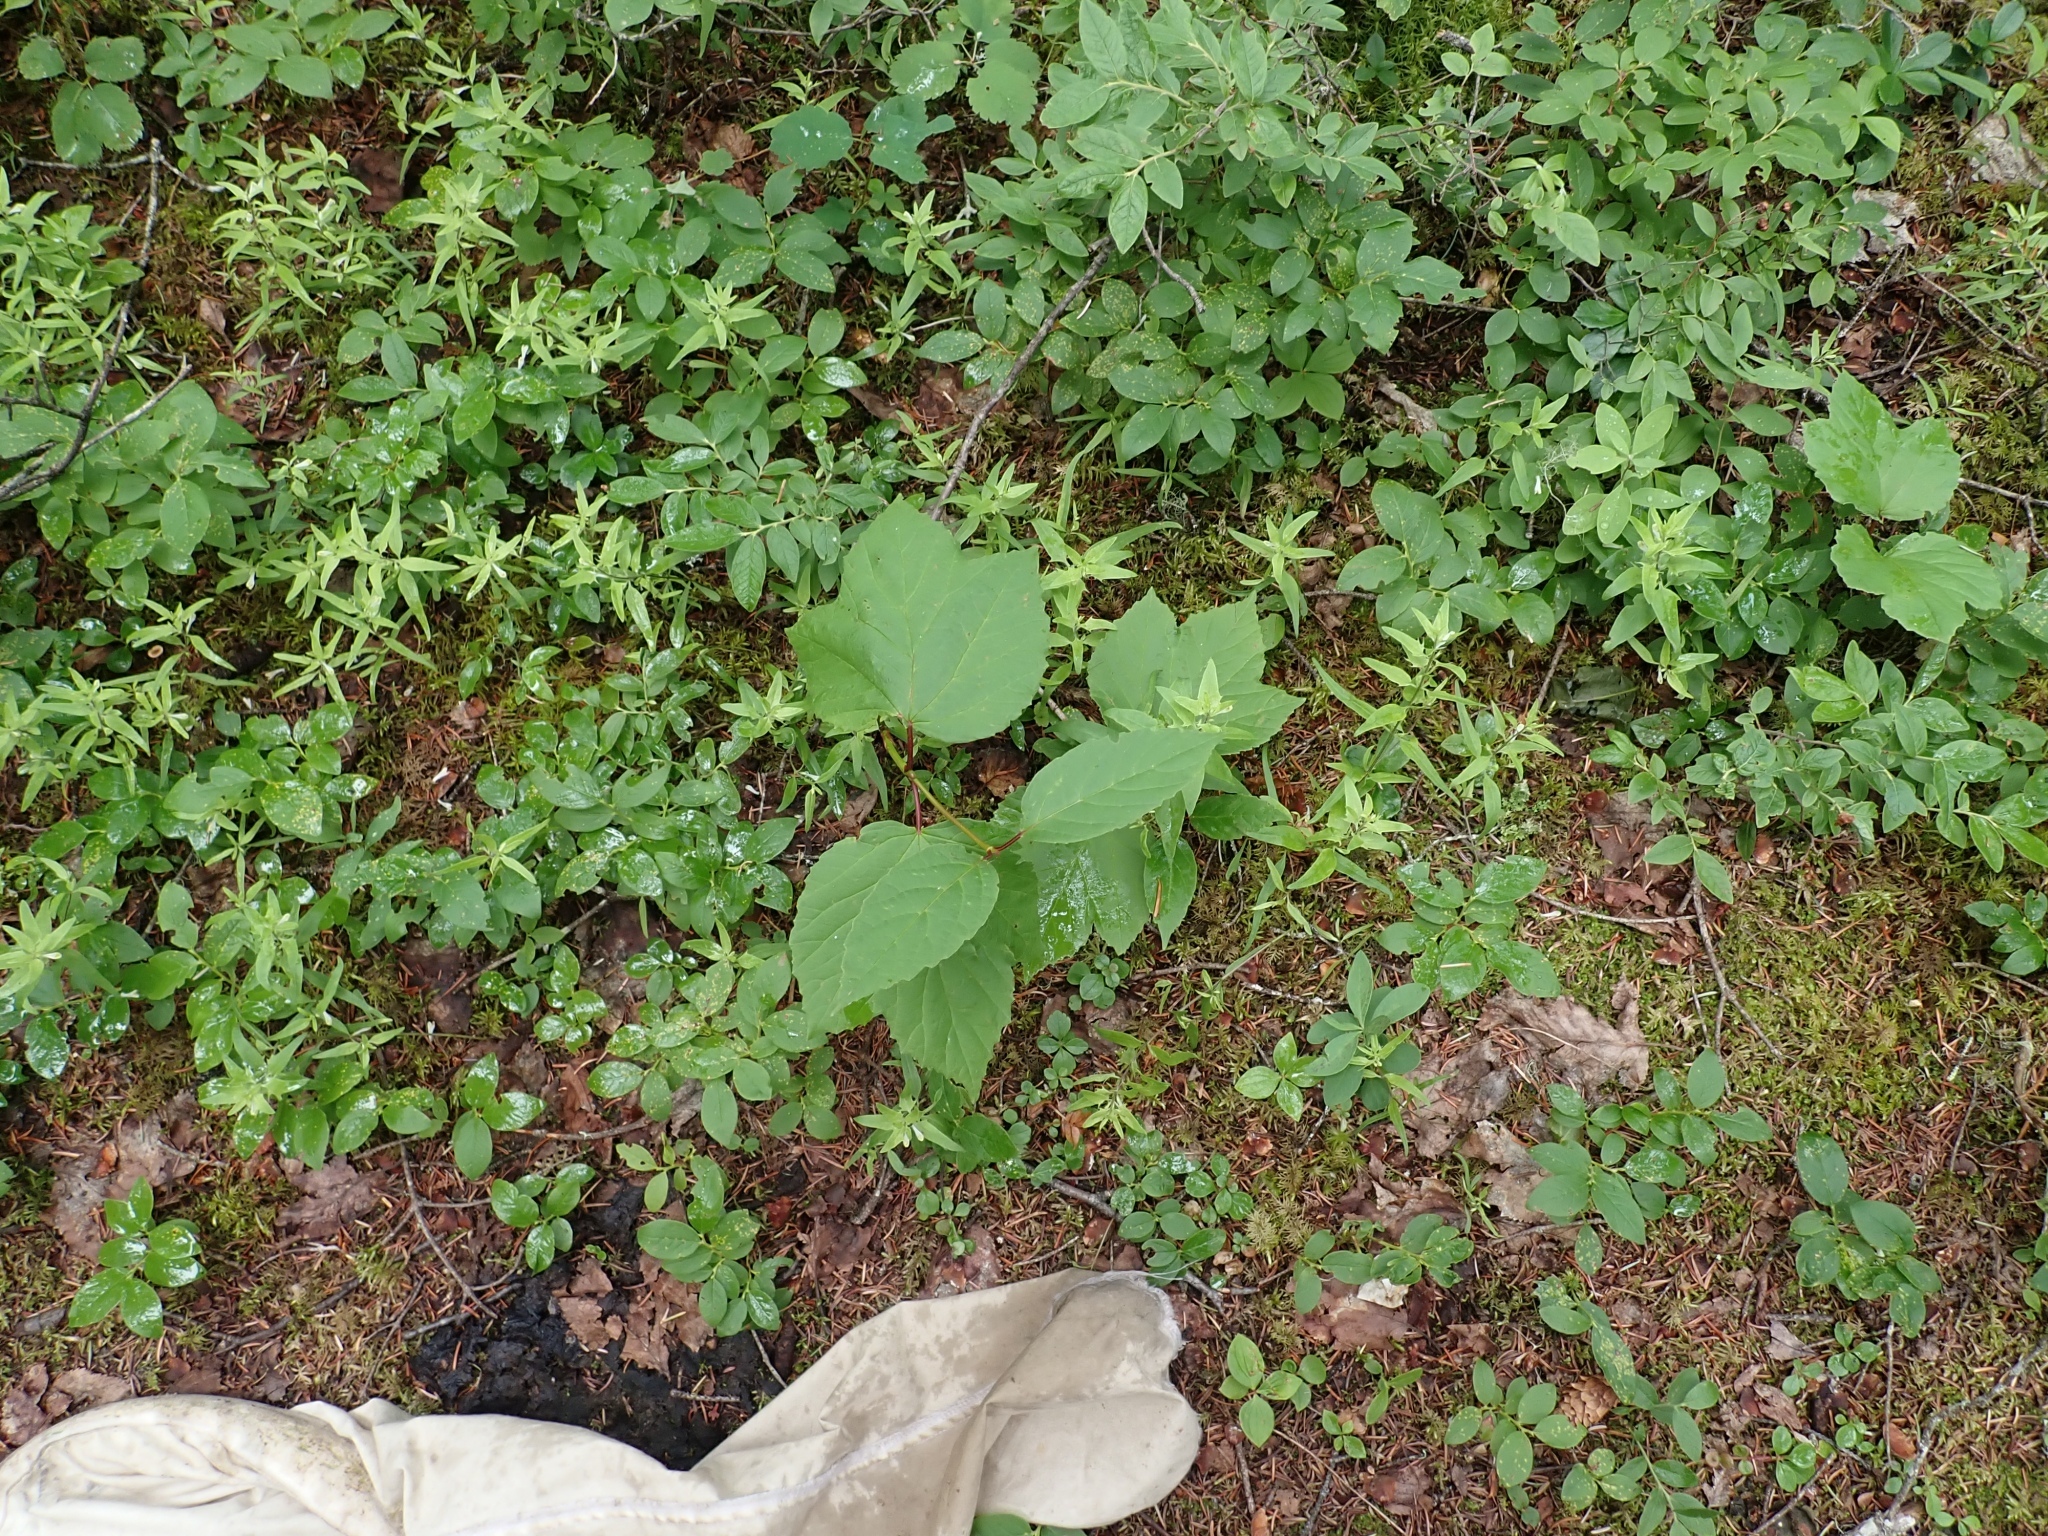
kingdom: Plantae
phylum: Tracheophyta
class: Magnoliopsida
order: Dipsacales
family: Viburnaceae
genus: Viburnum
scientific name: Viburnum edule
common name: Mooseberry
